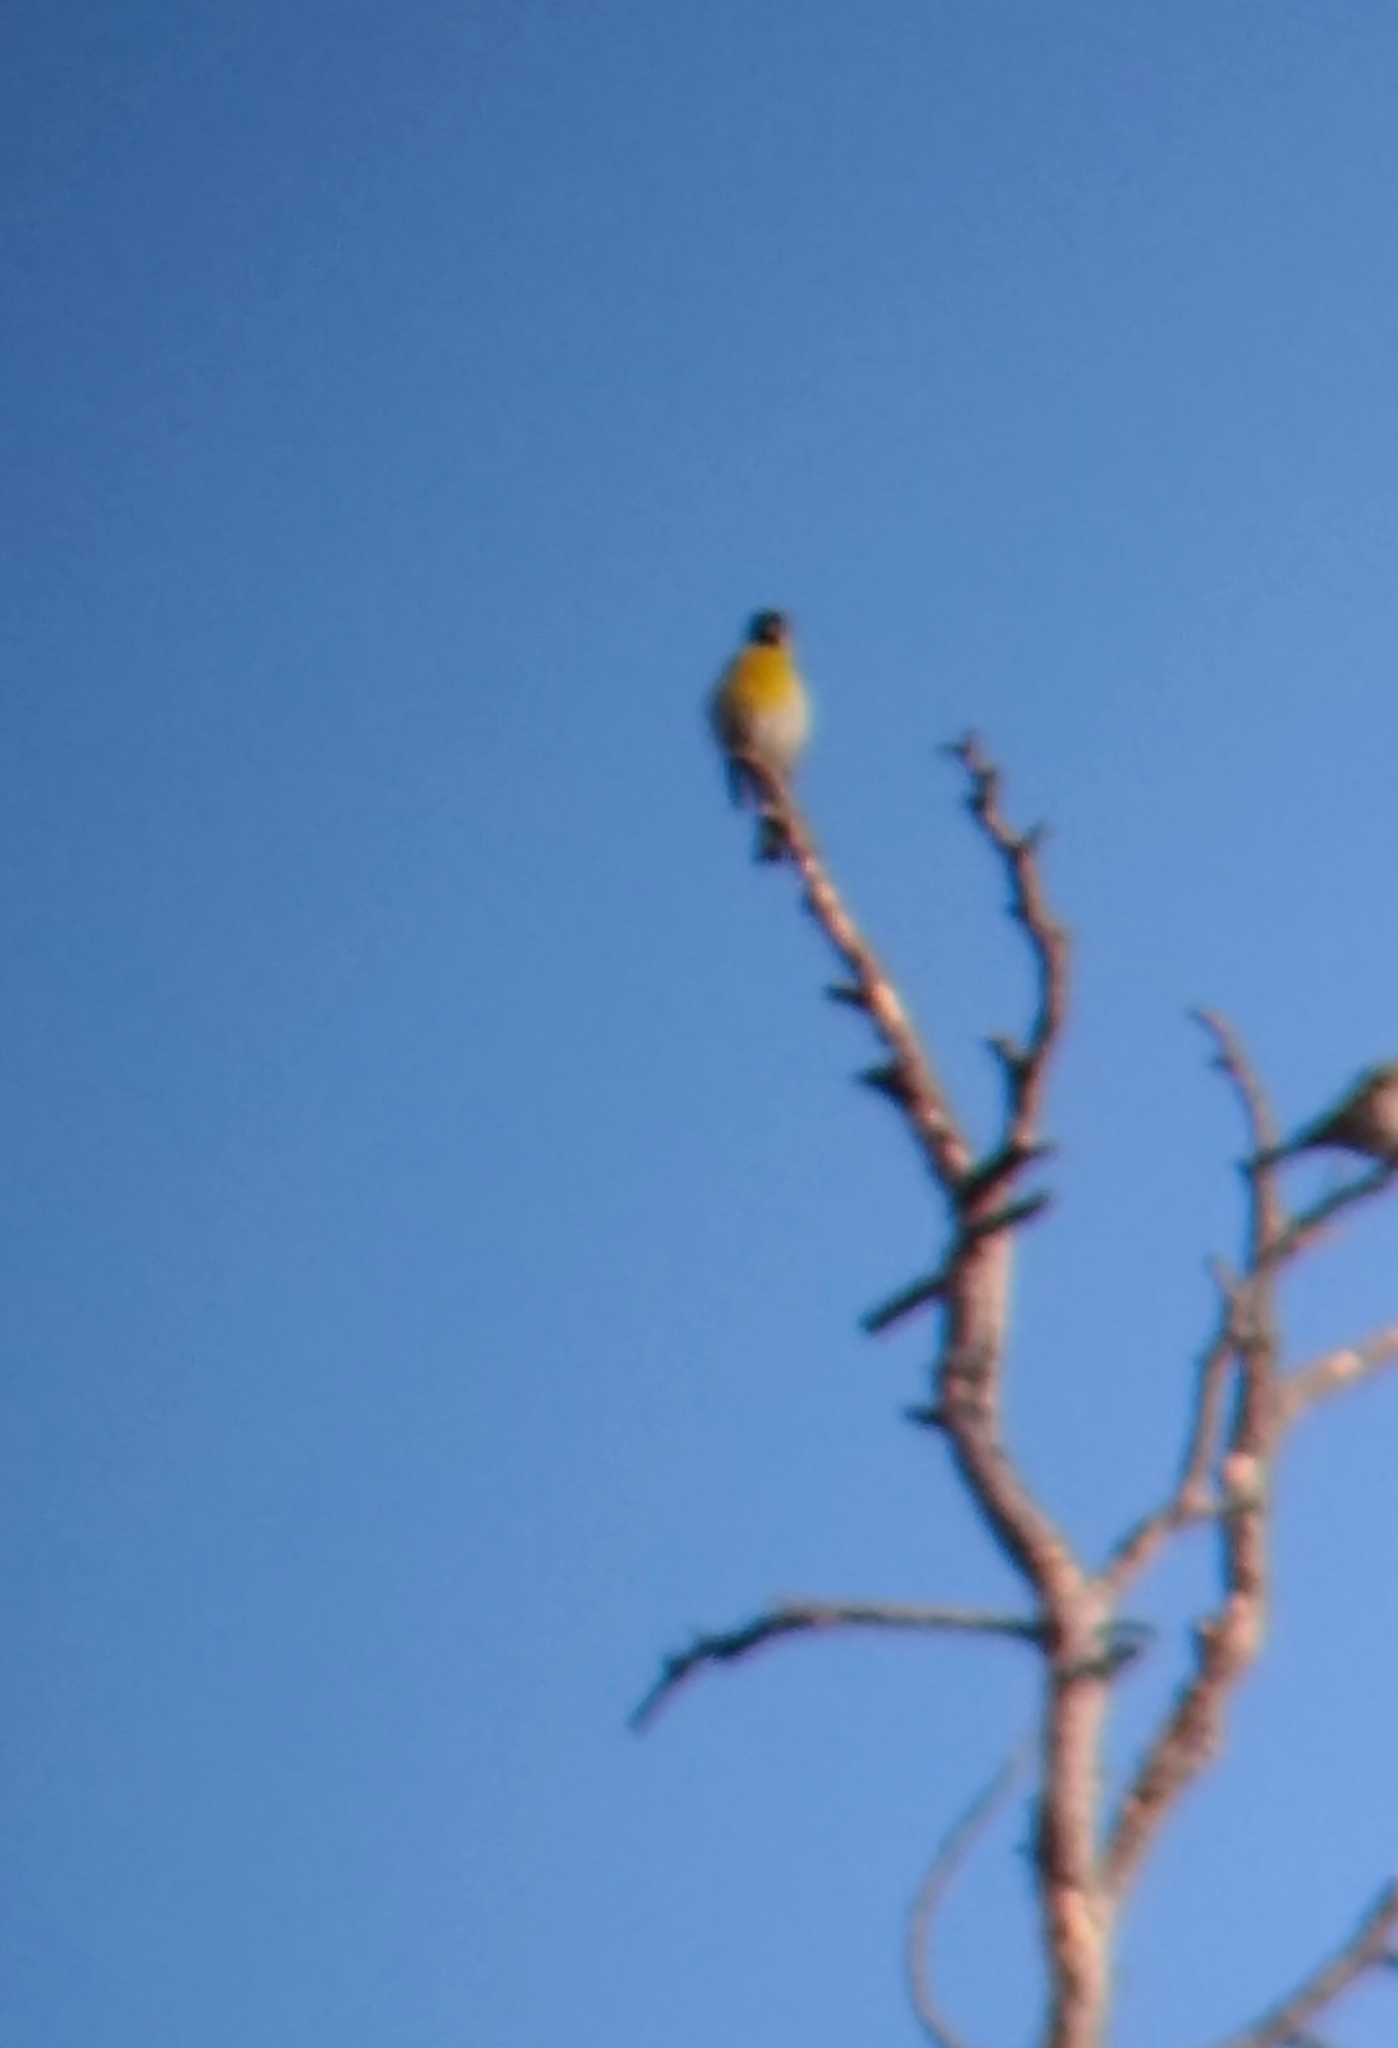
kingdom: Animalia
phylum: Chordata
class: Aves
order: Passeriformes
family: Fringillidae
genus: Spinus
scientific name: Spinus lawrencei
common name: Lawrence's goldfinch
